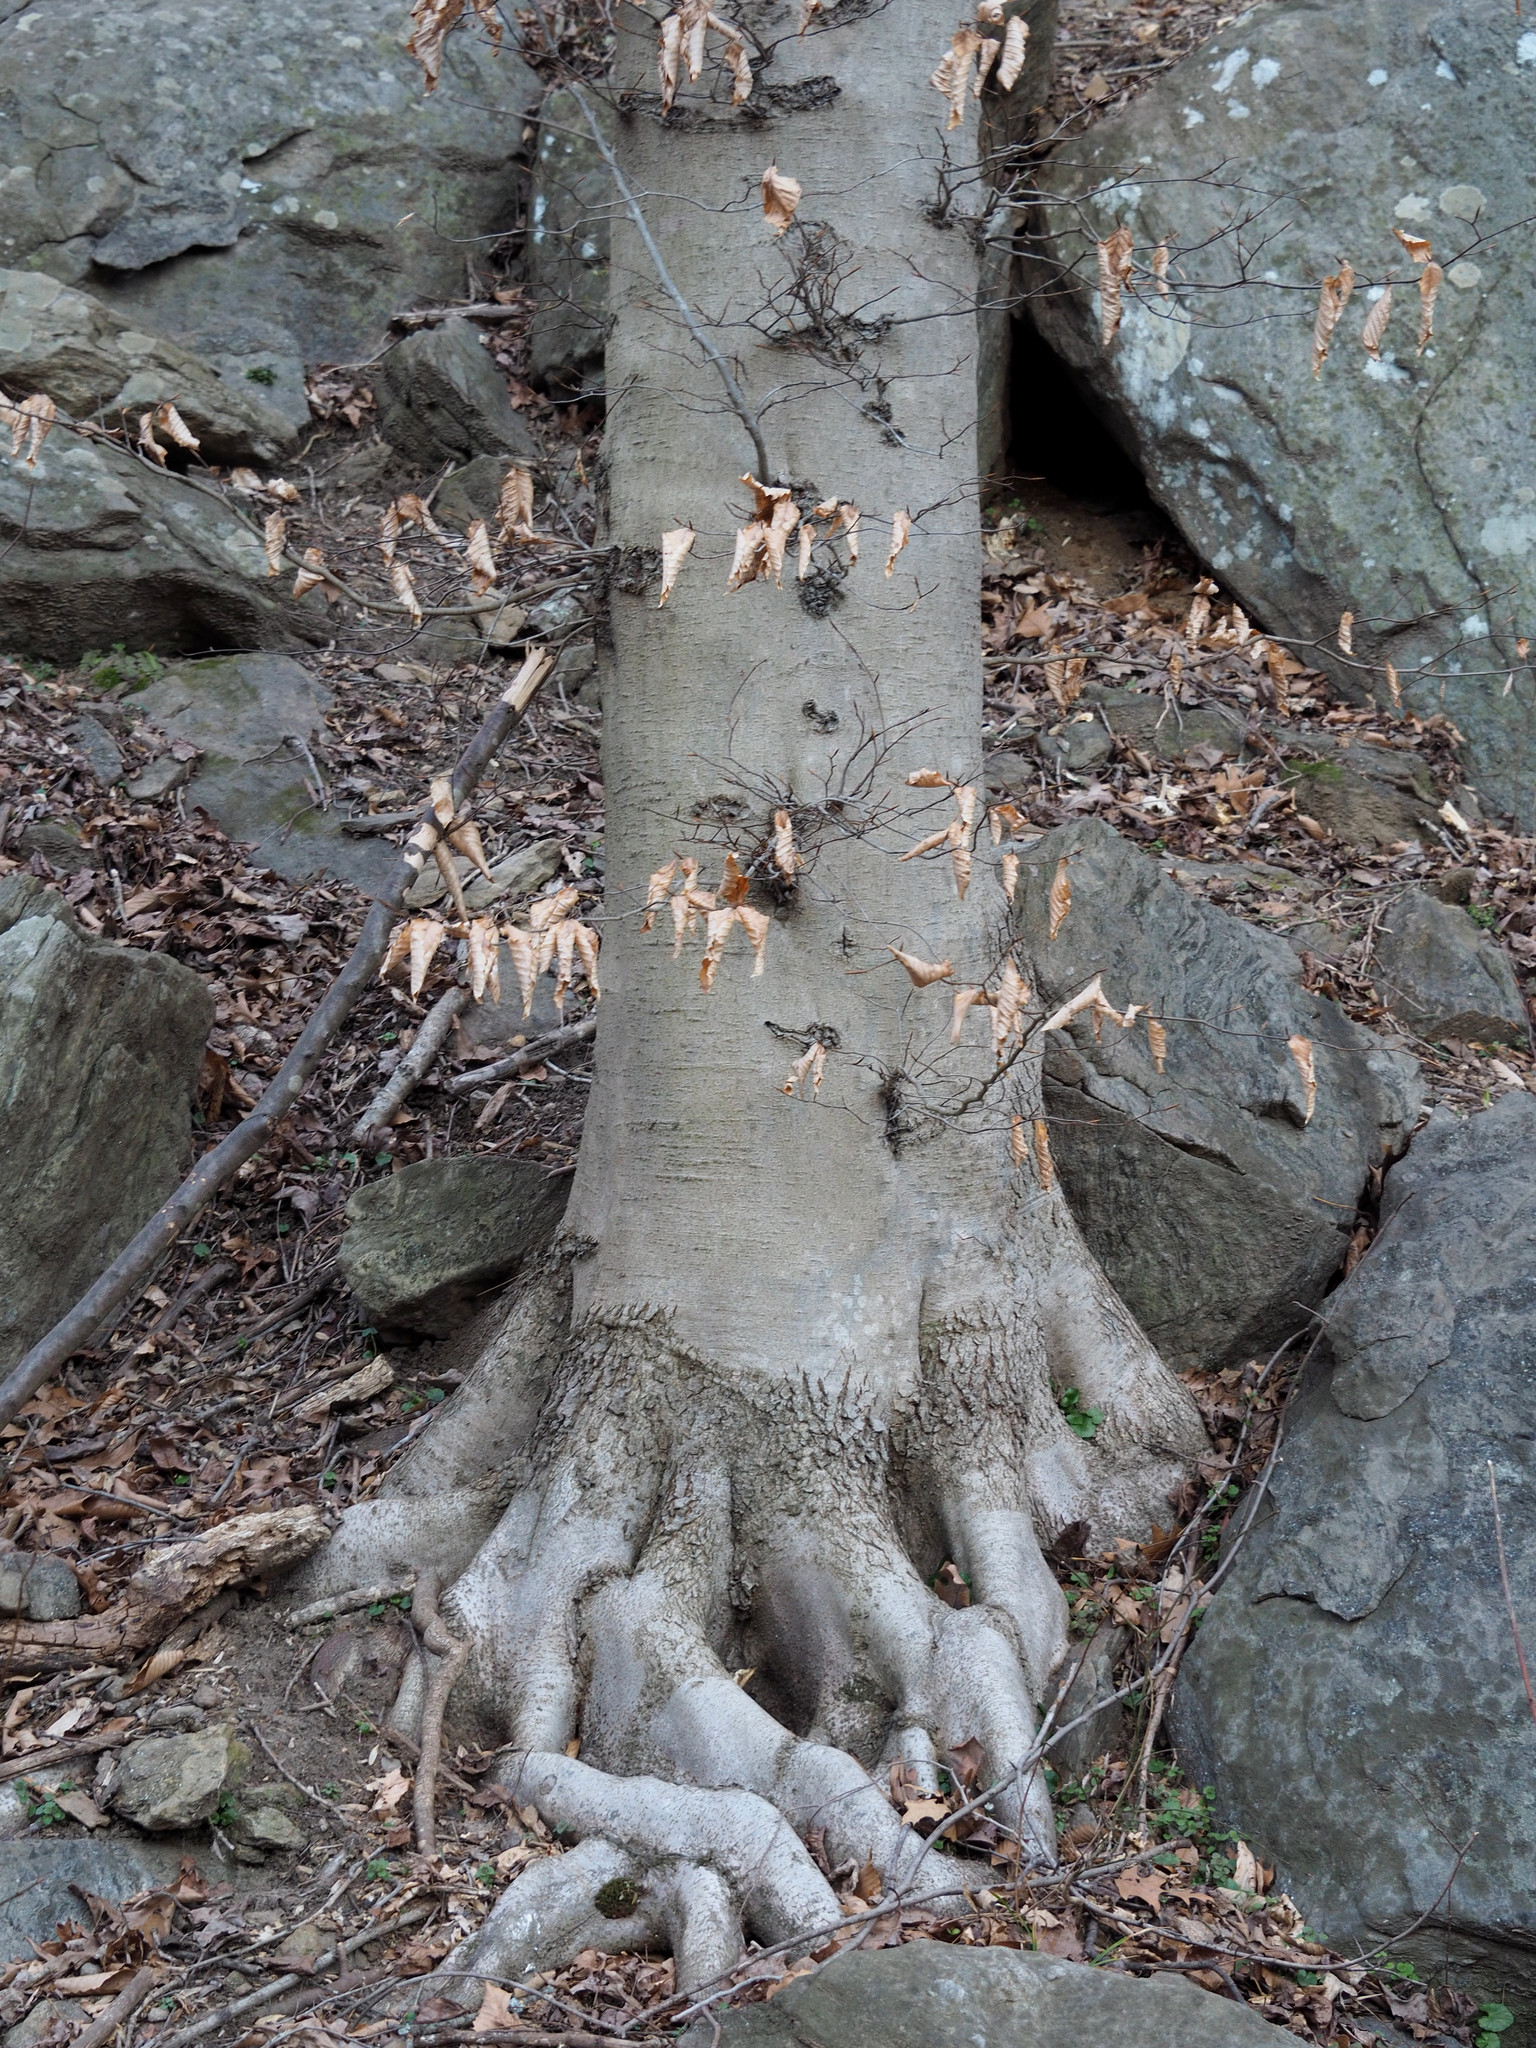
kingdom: Plantae
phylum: Tracheophyta
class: Magnoliopsida
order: Fagales
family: Fagaceae
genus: Fagus
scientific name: Fagus grandifolia
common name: American beech
